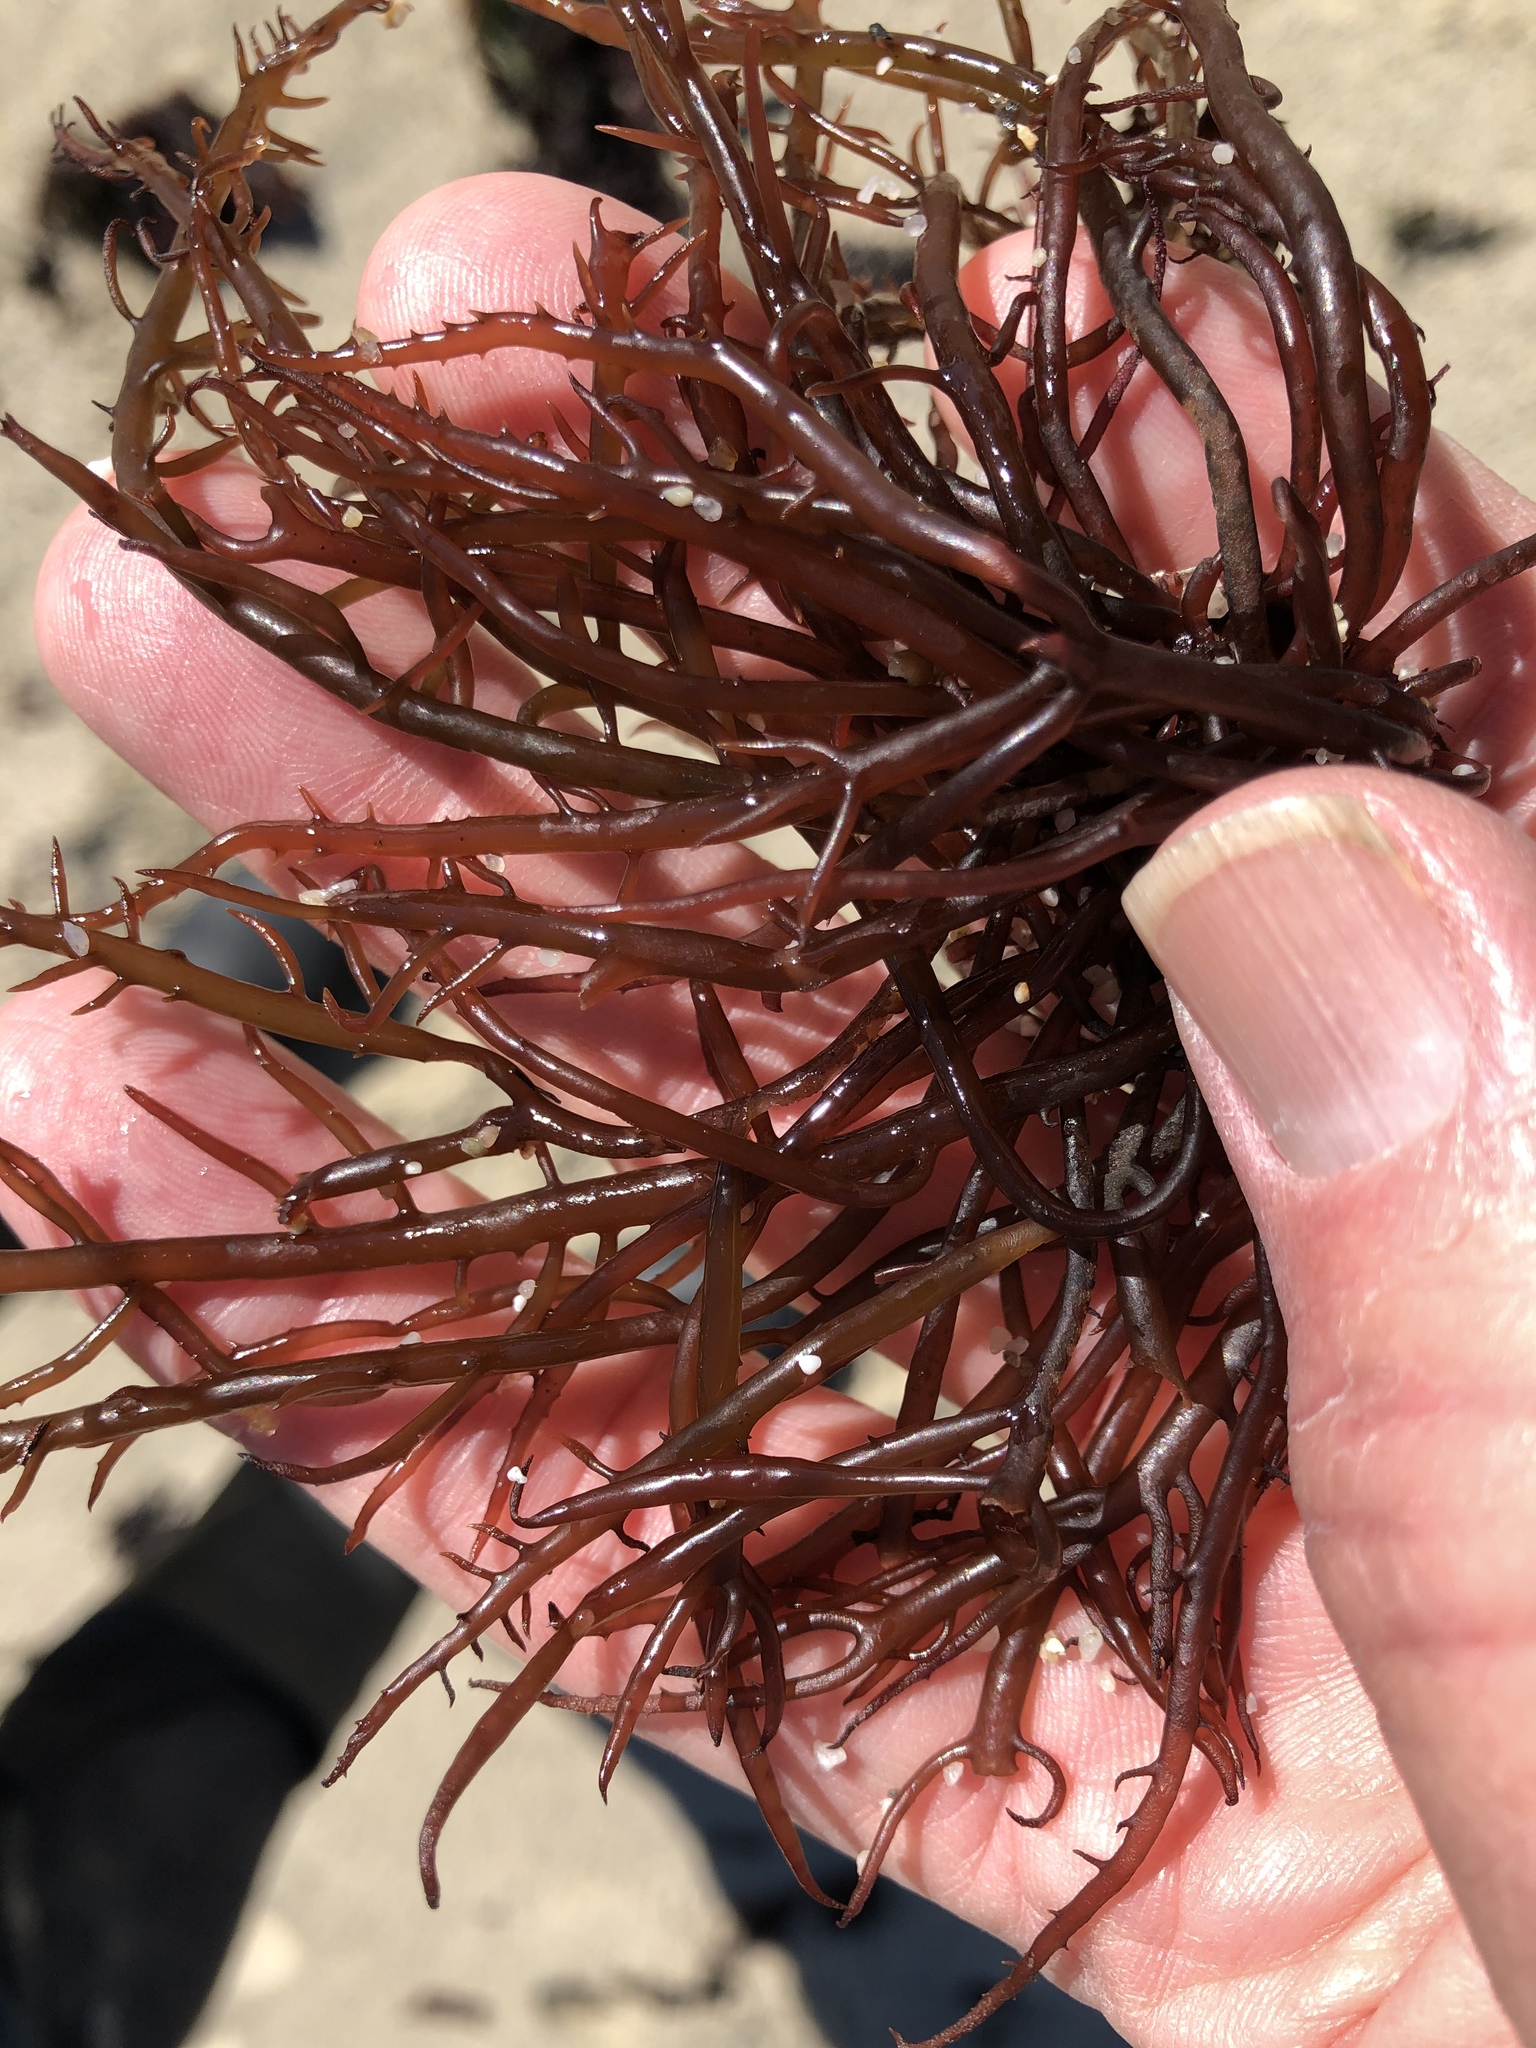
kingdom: Plantae
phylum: Rhodophyta
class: Florideophyceae
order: Gigartinales
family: Solieriaceae
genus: Sarcodiotheca
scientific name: Sarcodiotheca gaudichaudii
